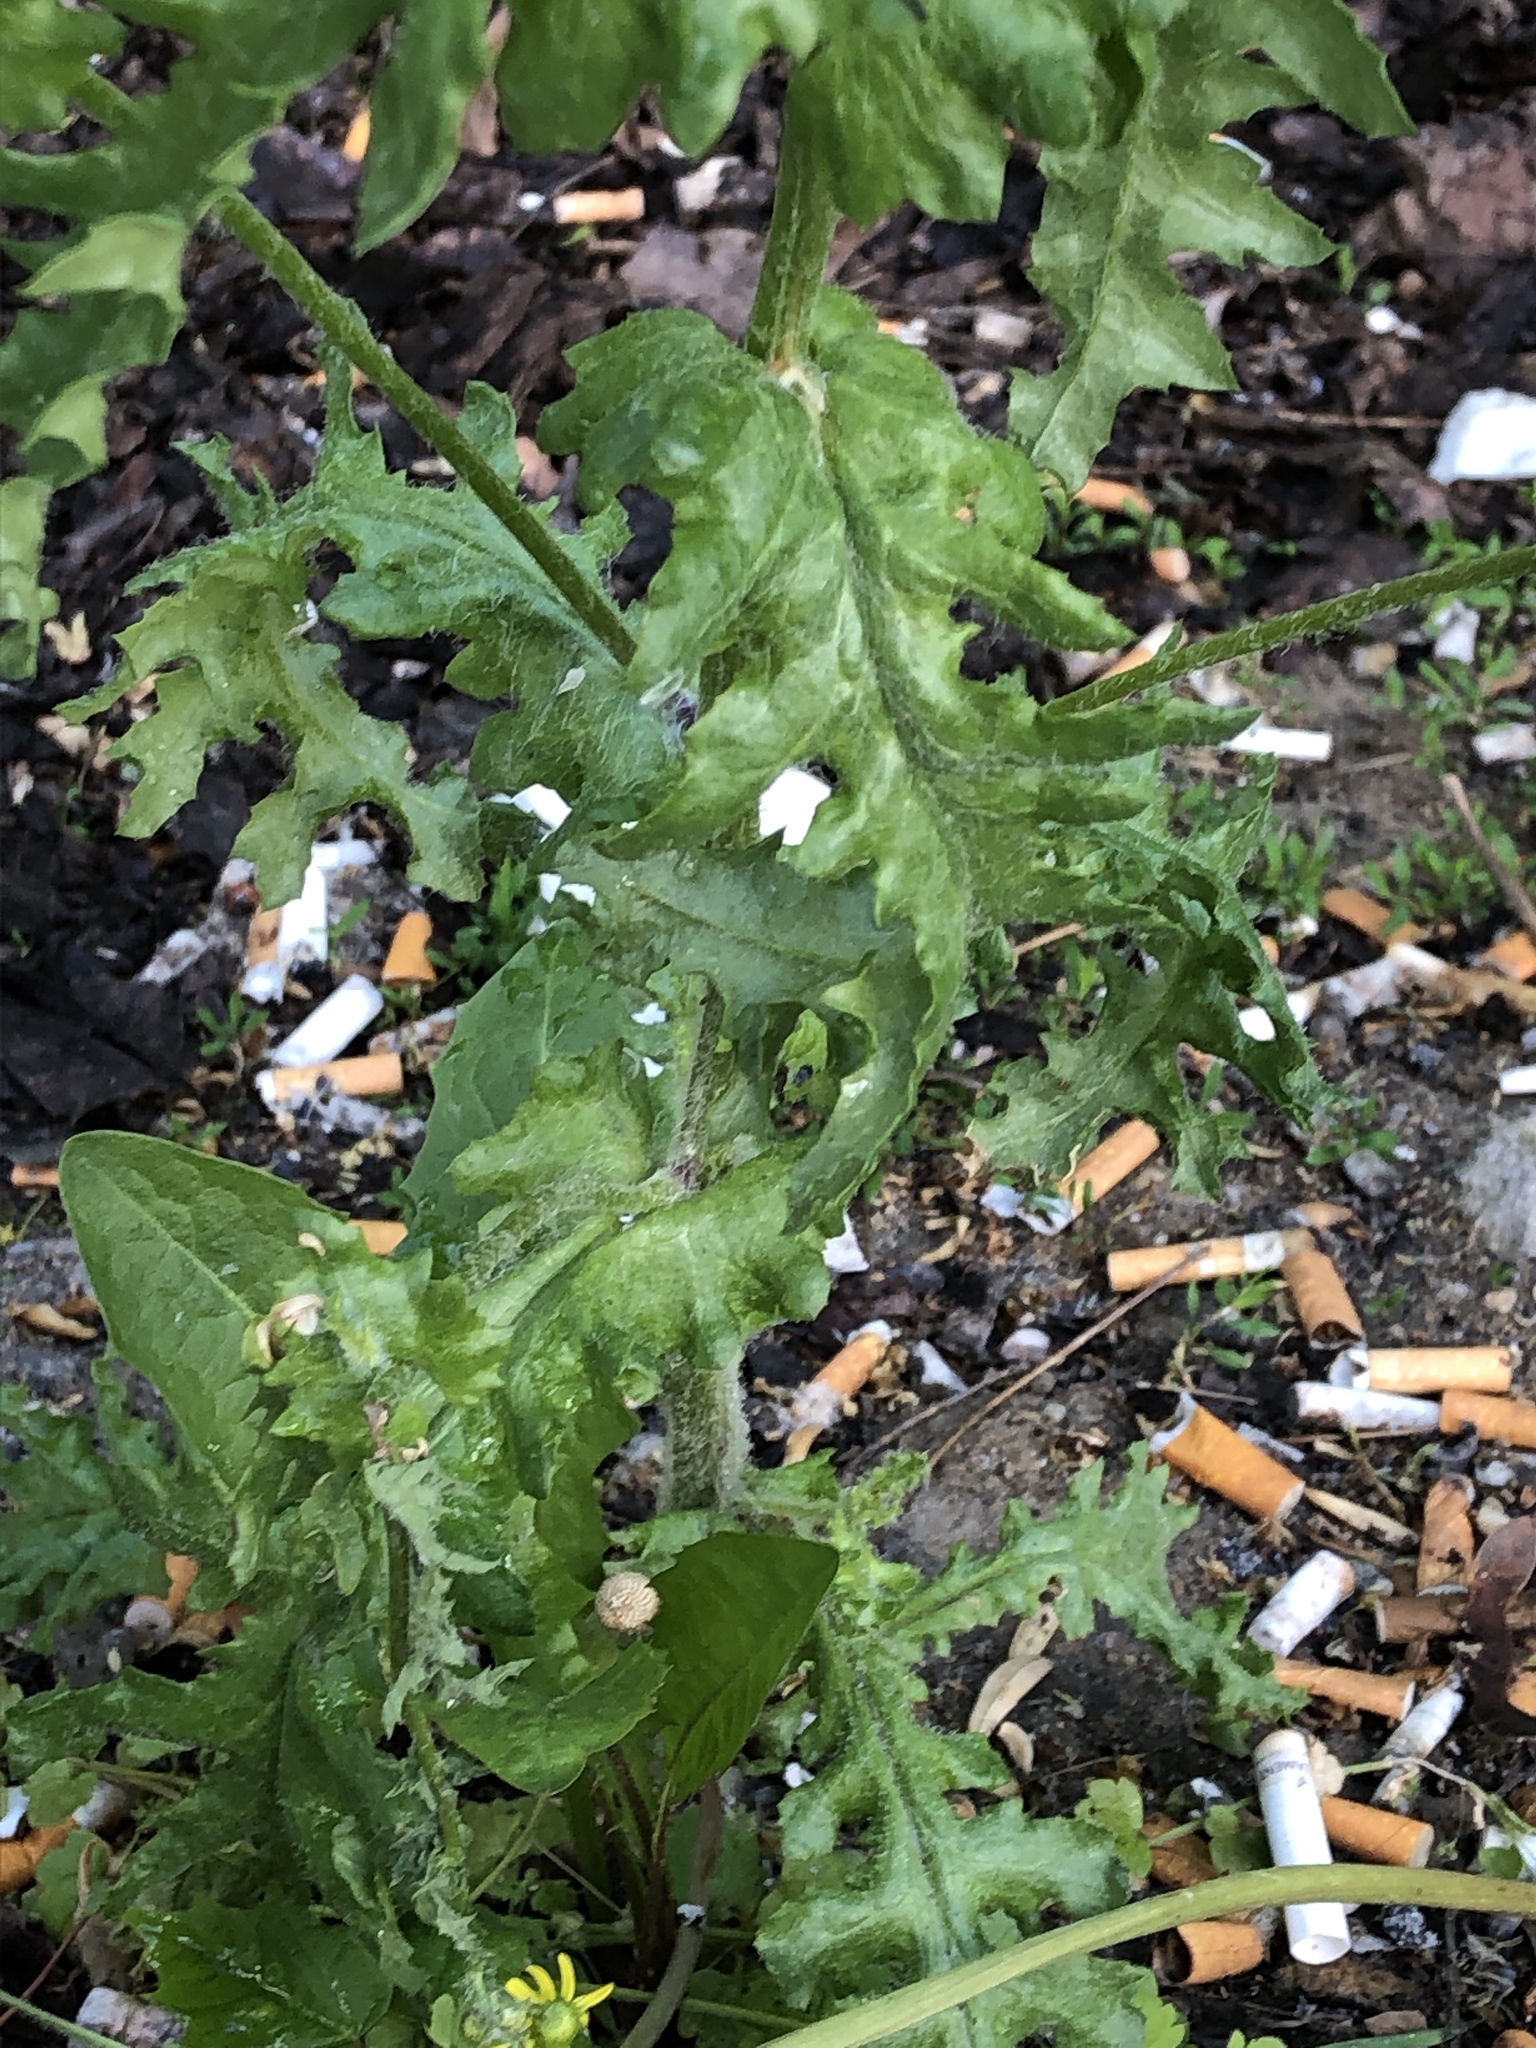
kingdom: Plantae
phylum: Tracheophyta
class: Magnoliopsida
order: Asterales
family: Asteraceae
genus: Senecio
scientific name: Senecio vernalis
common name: Eastern groundsel
